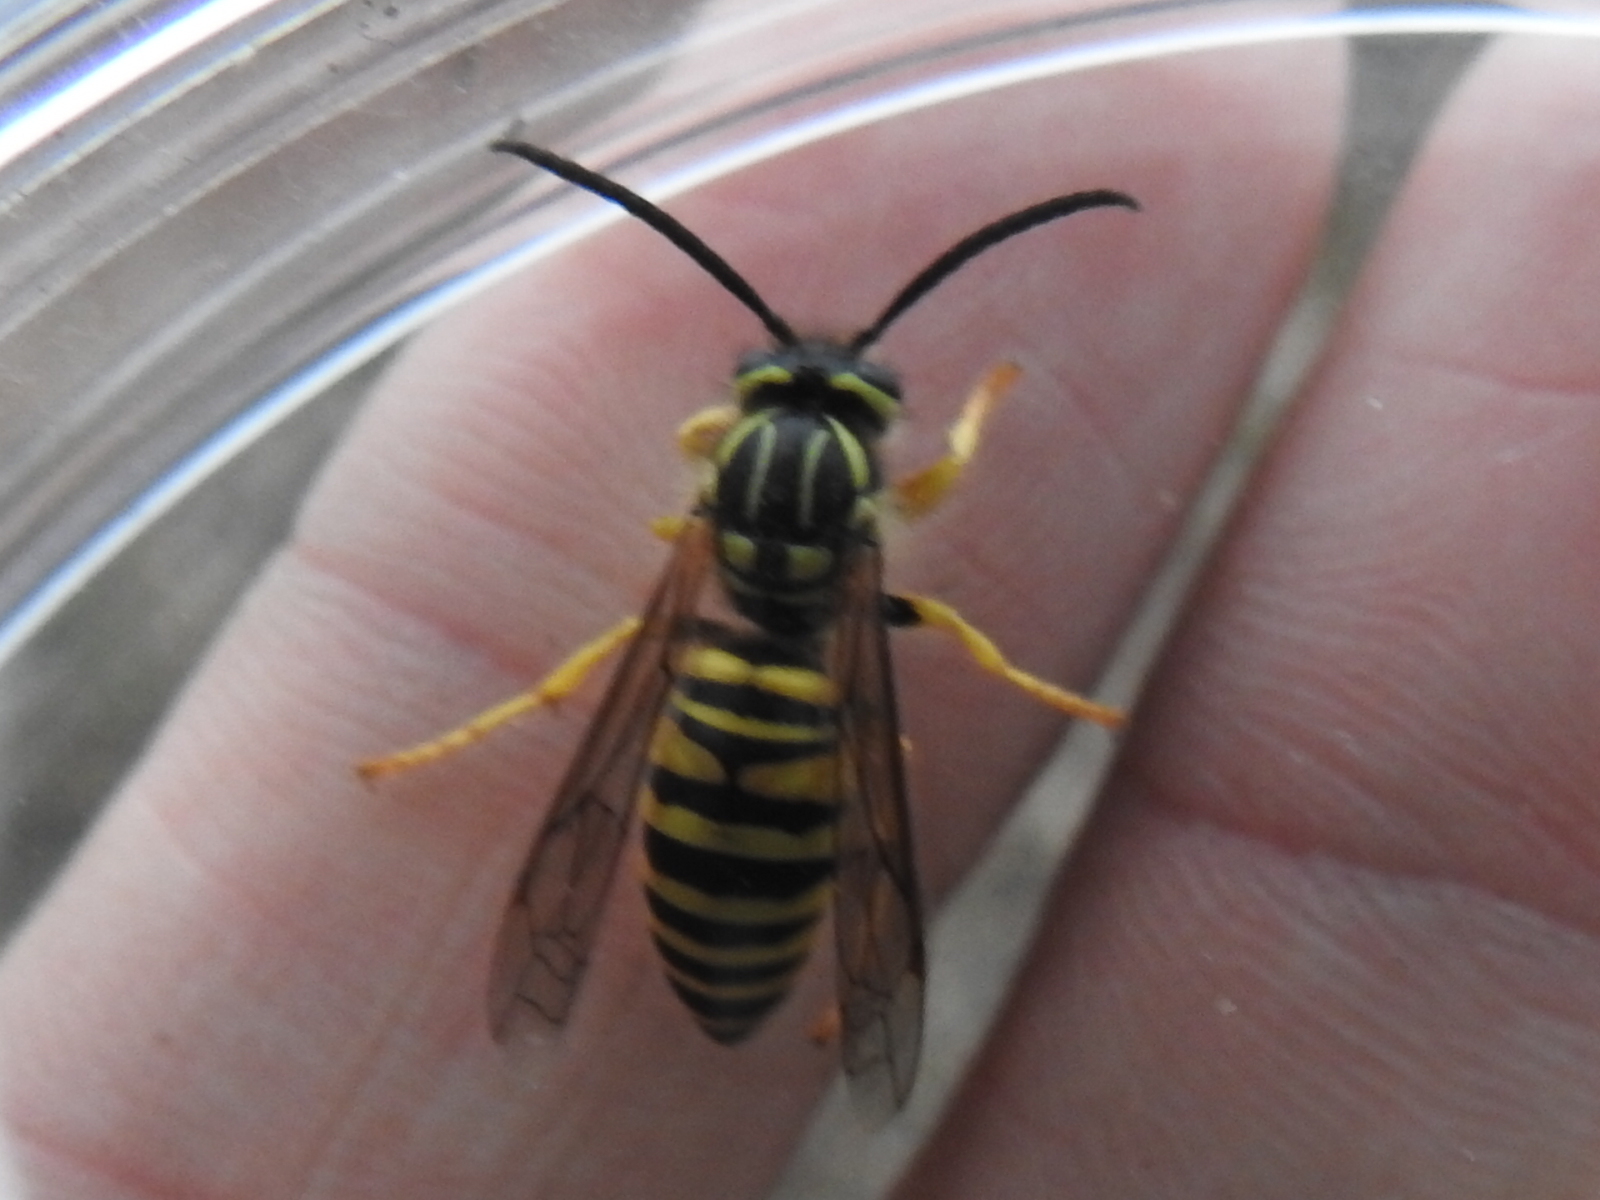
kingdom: Animalia
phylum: Arthropoda
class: Insecta
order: Hymenoptera
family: Vespidae
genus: Vespula
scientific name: Vespula squamosa
